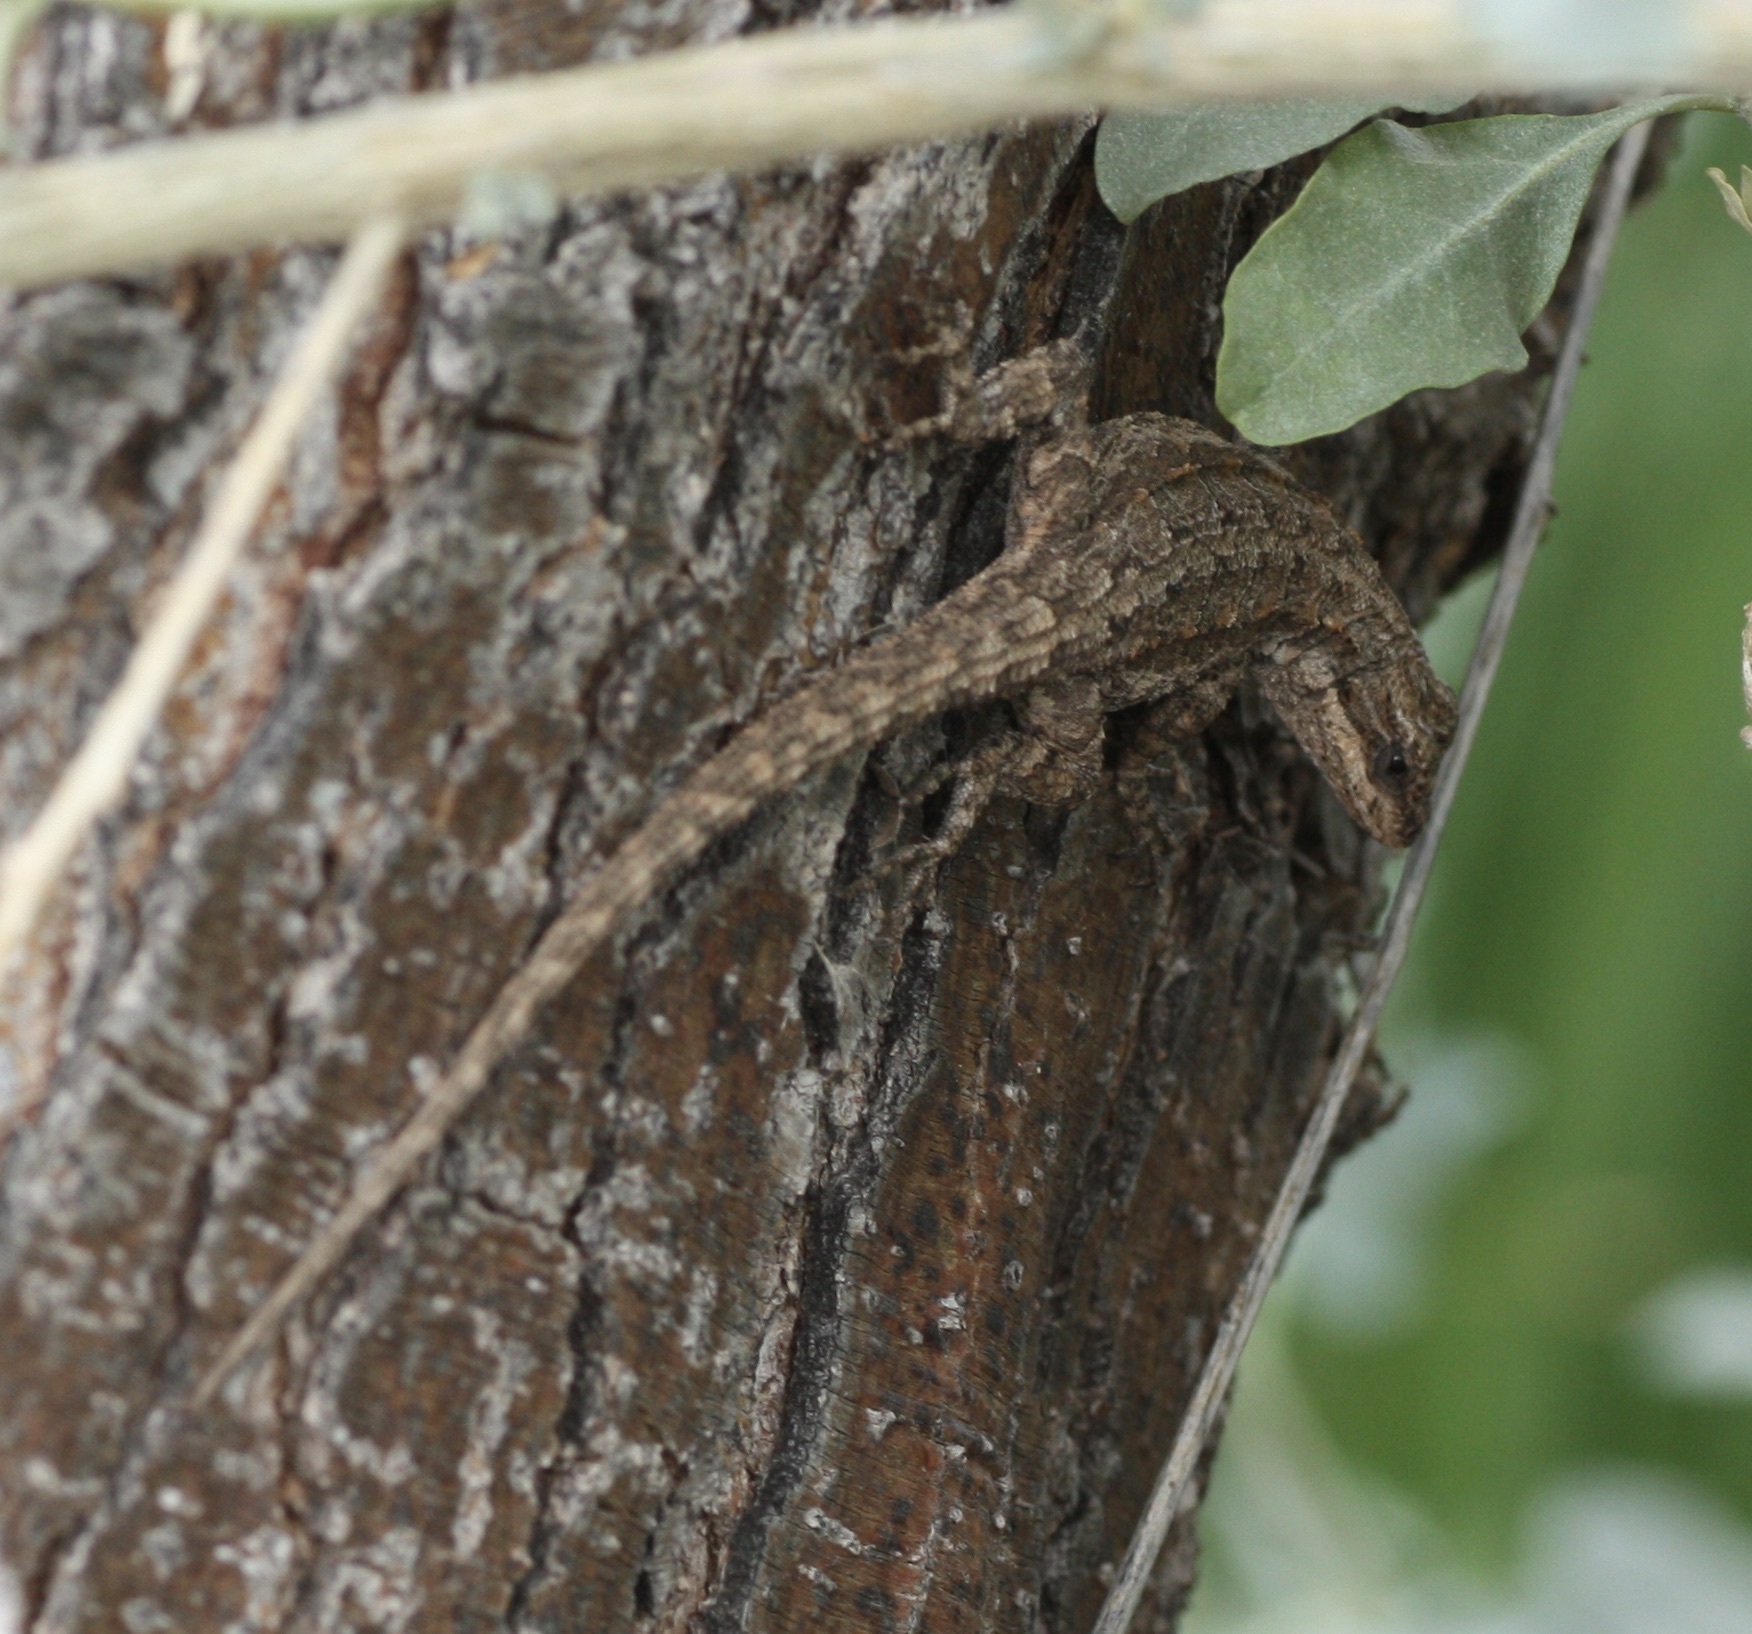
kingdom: Animalia
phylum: Chordata
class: Squamata
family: Phrynosomatidae
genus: Urosaurus
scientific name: Urosaurus ornatus
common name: Ornate tree lizard
